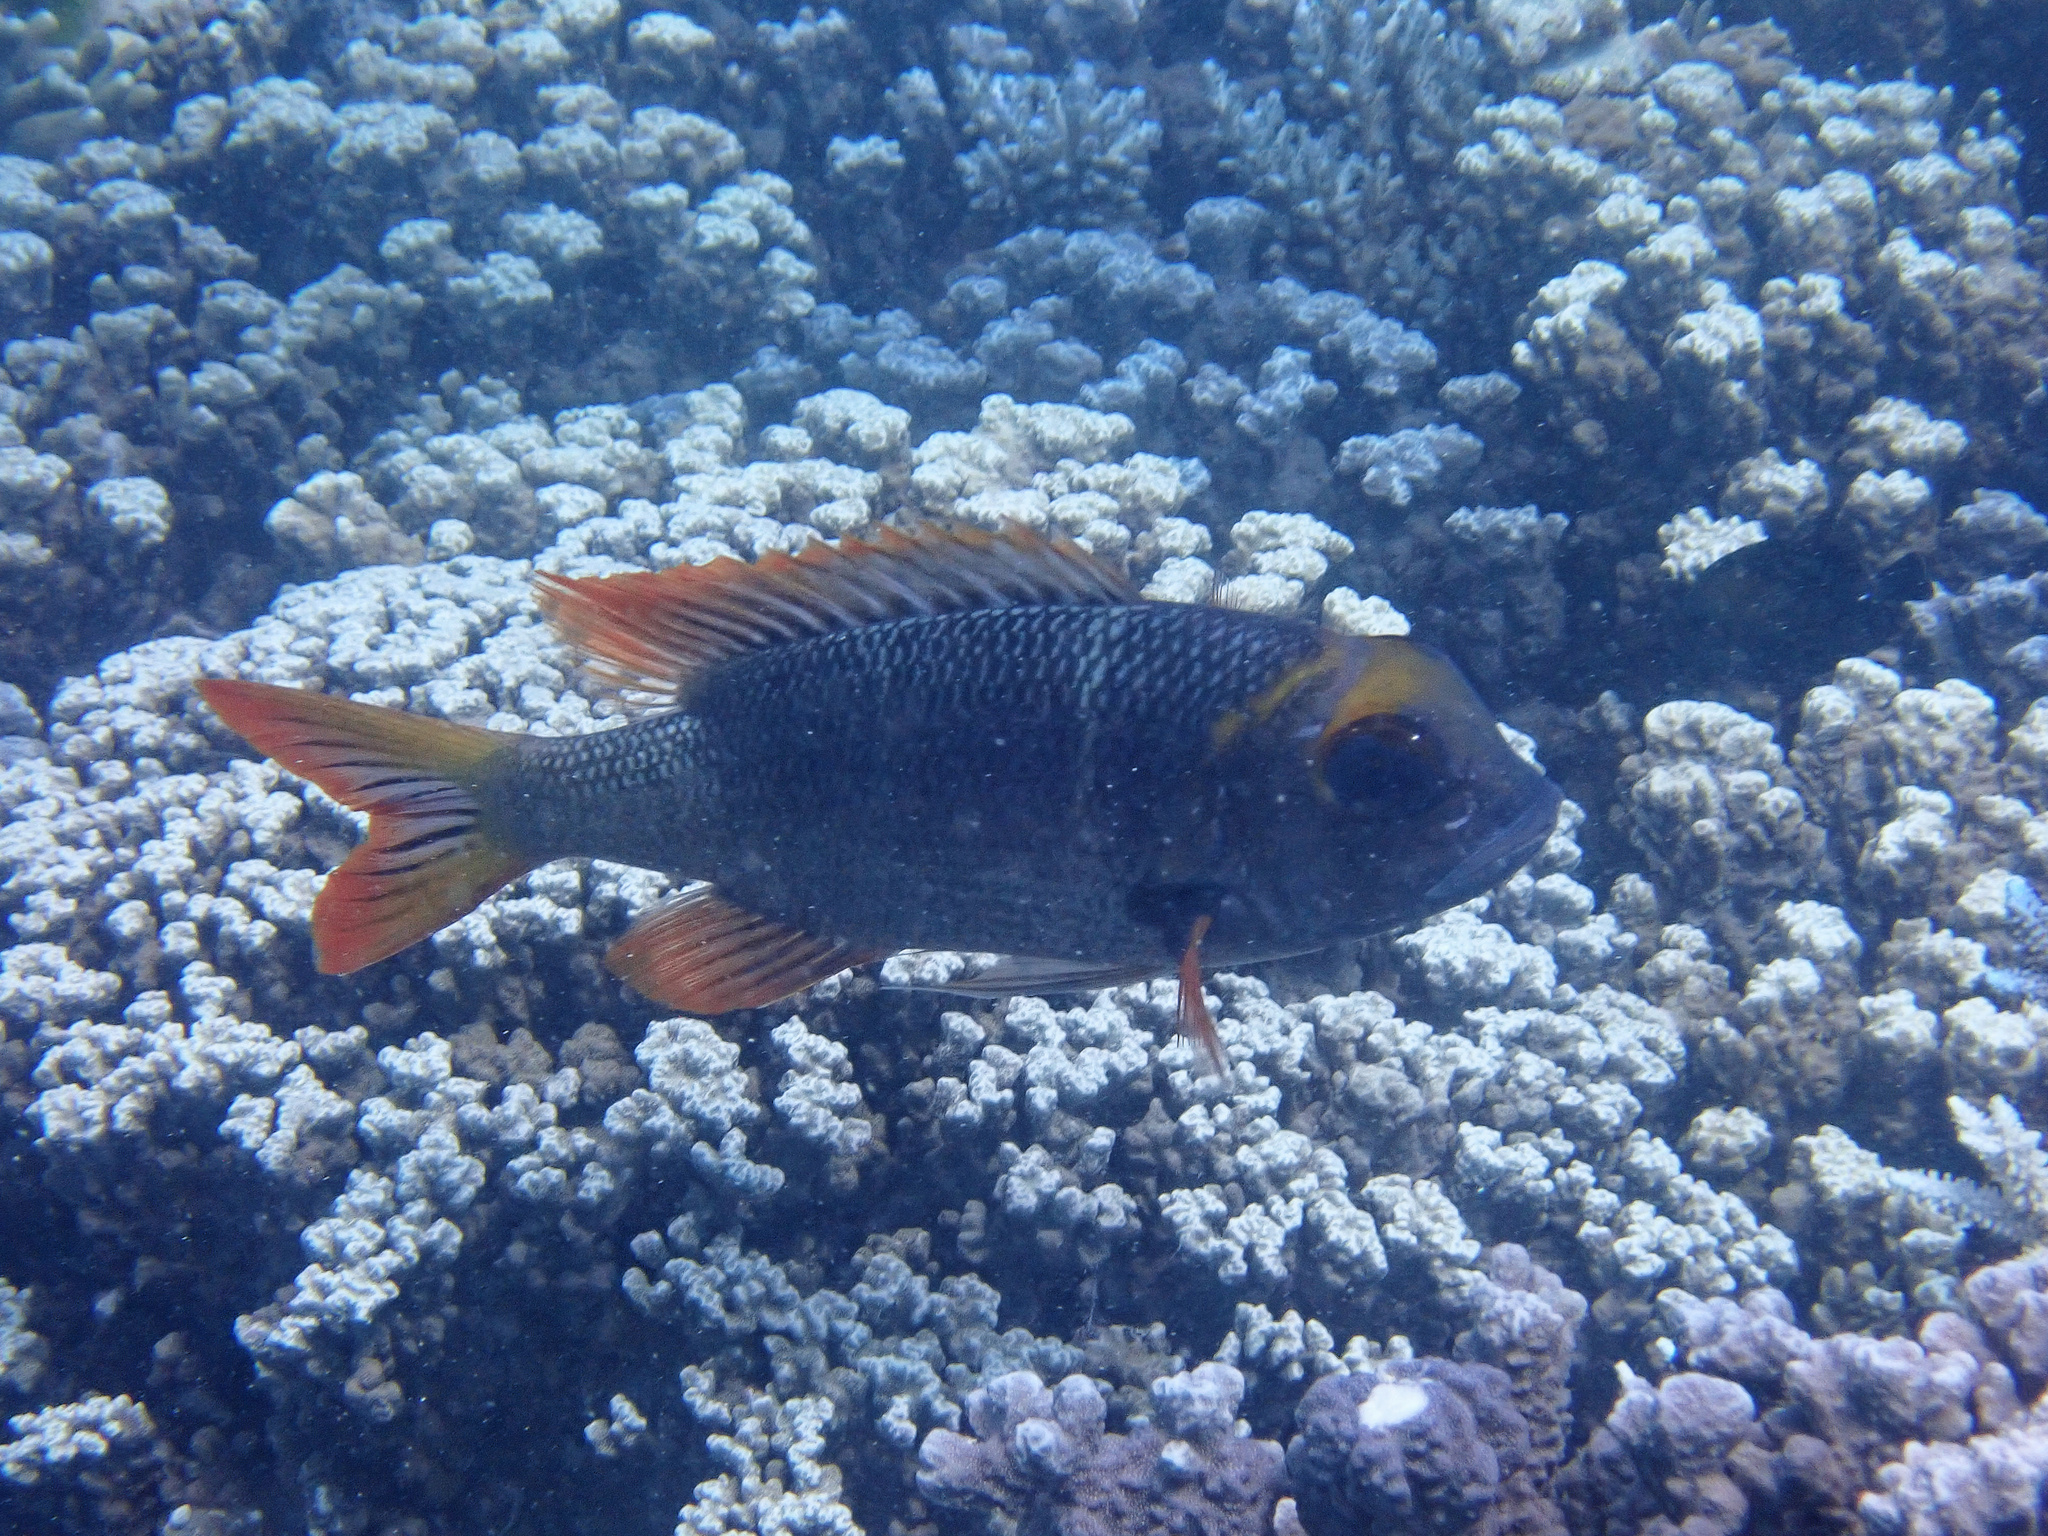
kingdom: Animalia
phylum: Chordata
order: Perciformes
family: Lethrinidae
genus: Monotaxis
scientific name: Monotaxis heterodon
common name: Redfin emperor
